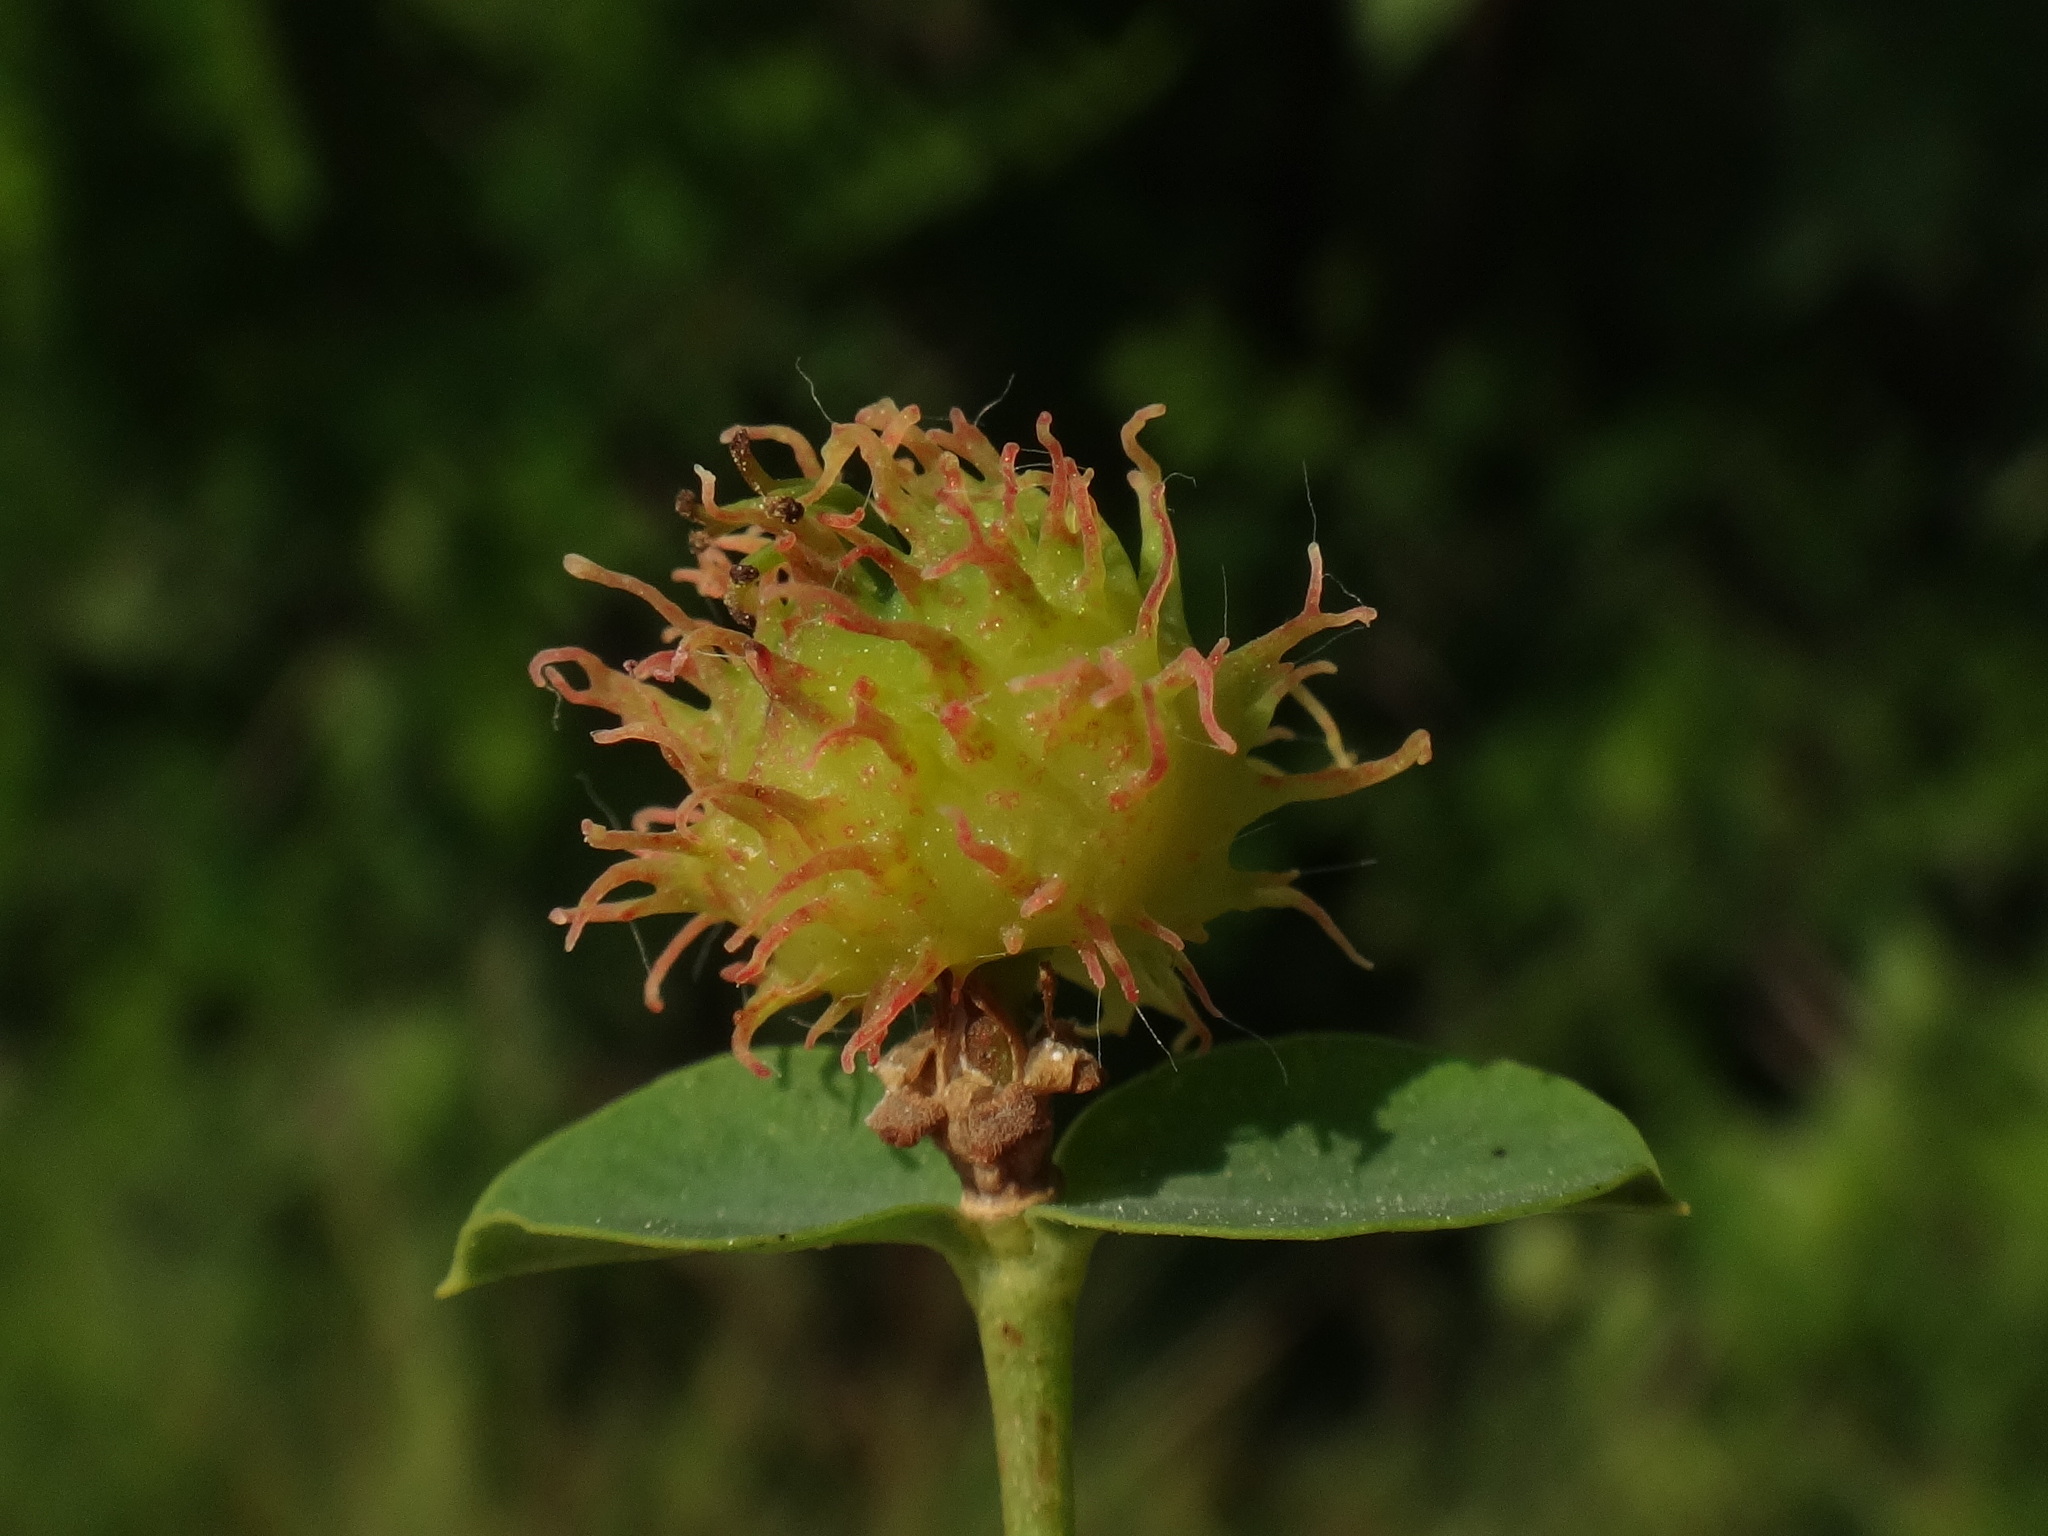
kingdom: Plantae
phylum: Tracheophyta
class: Magnoliopsida
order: Malpighiales
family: Euphorbiaceae
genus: Euphorbia
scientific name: Euphorbia fragifera
